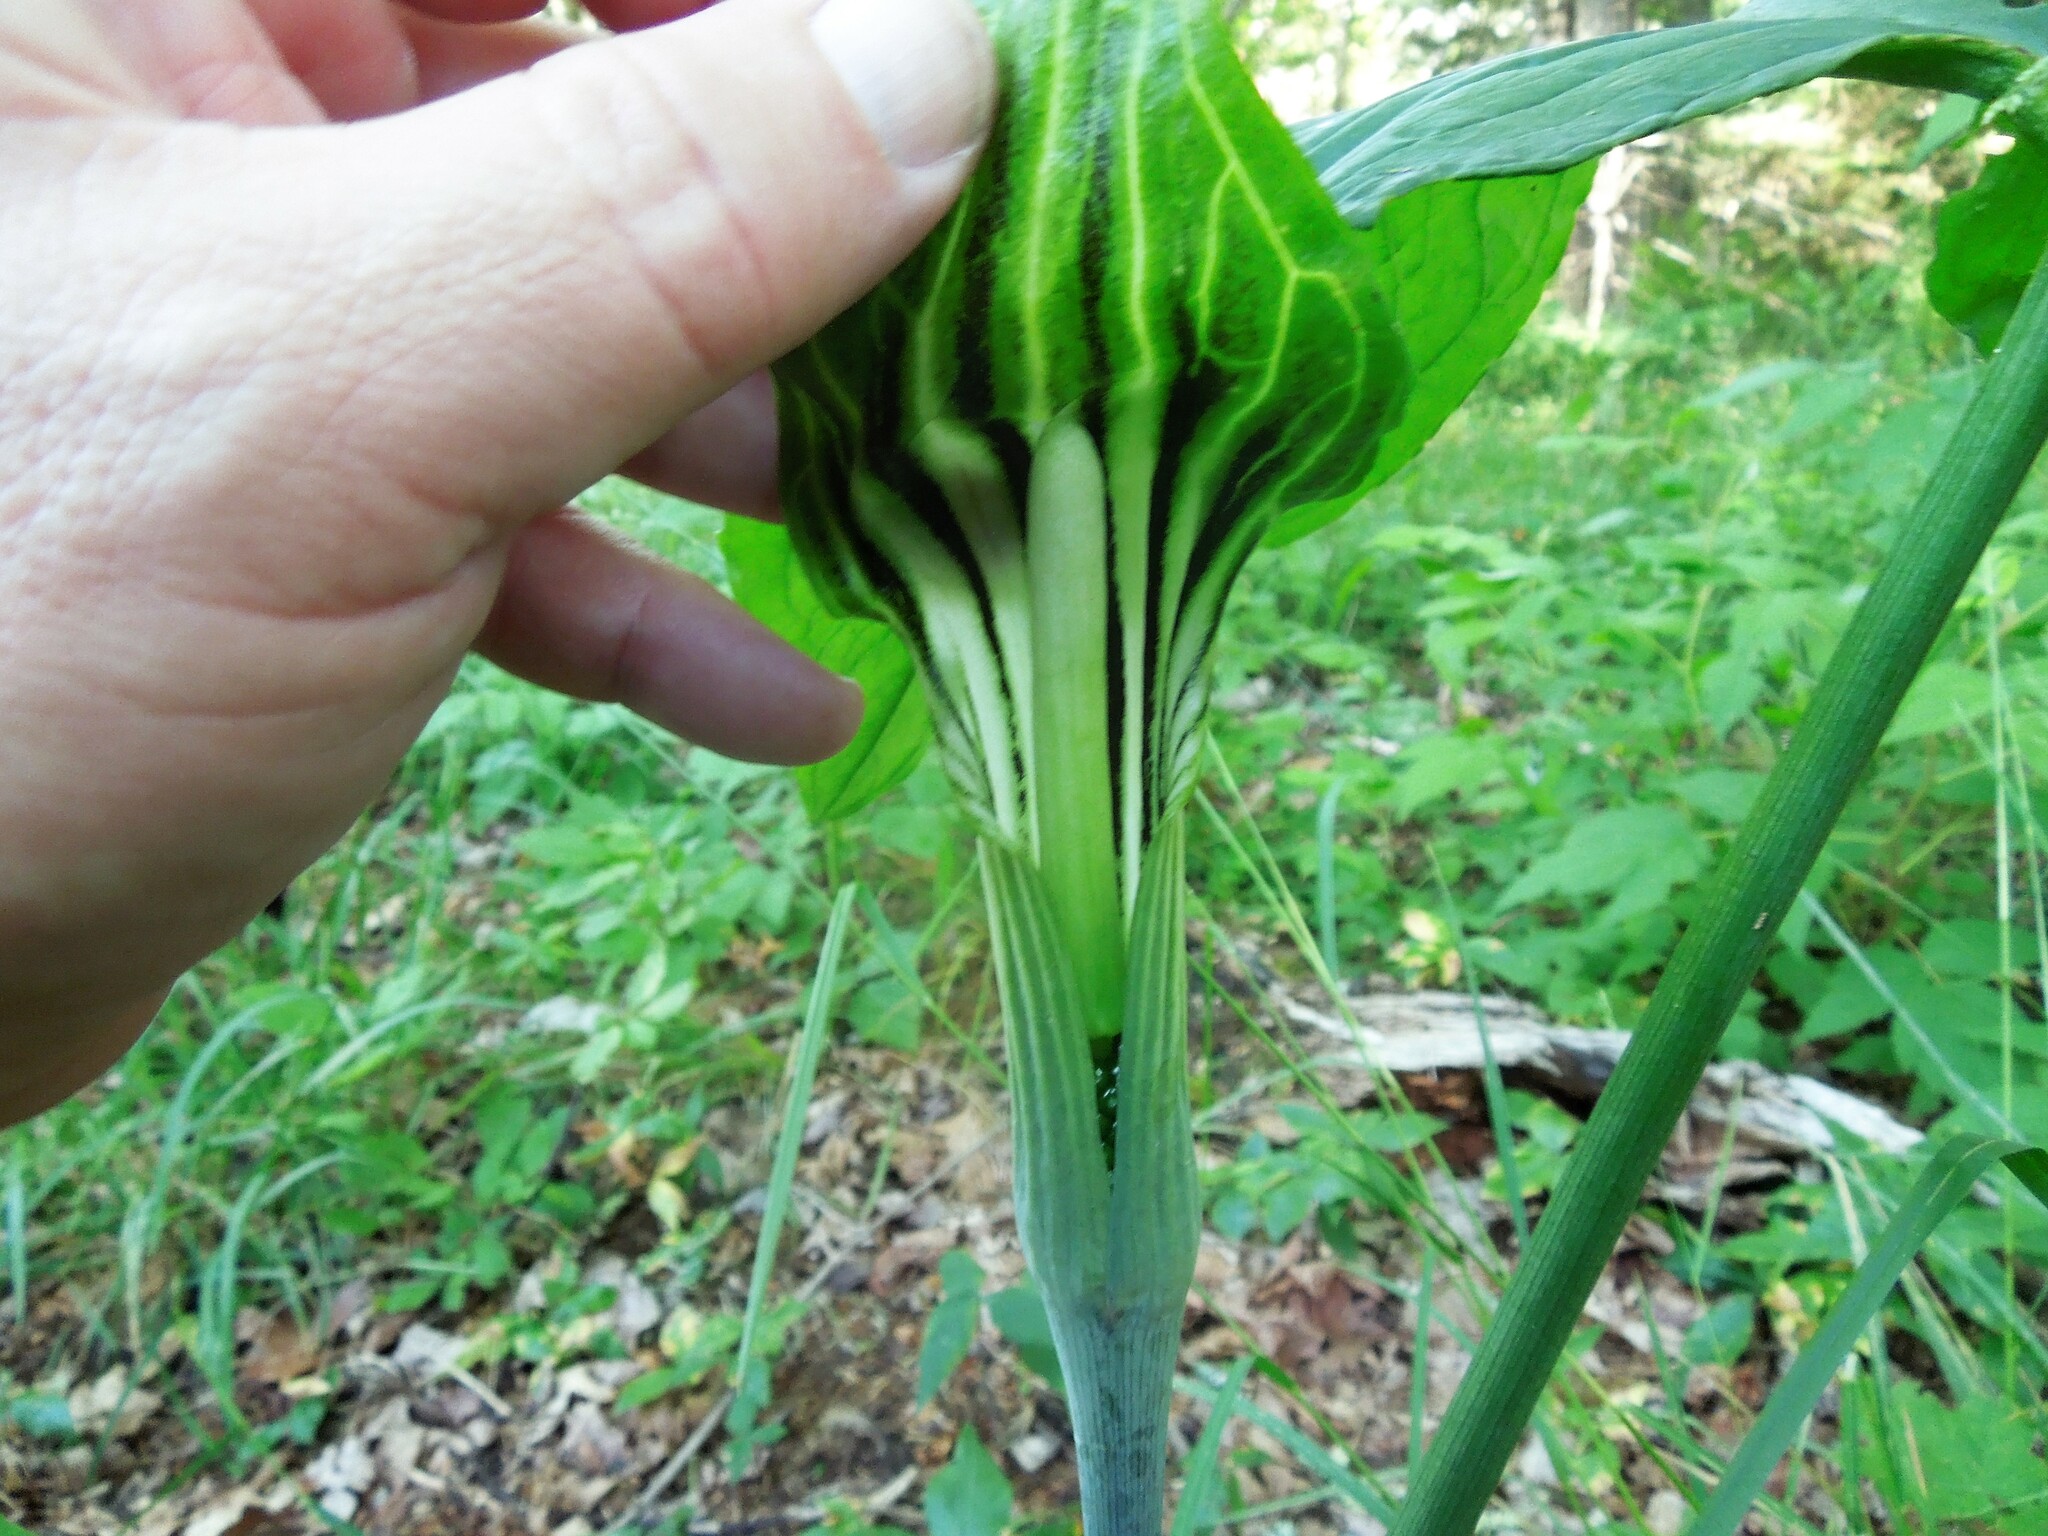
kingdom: Plantae
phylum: Tracheophyta
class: Liliopsida
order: Alismatales
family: Araceae
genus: Arisaema
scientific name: Arisaema stewardsonii
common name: Swamp jack-in-the-pulpit
